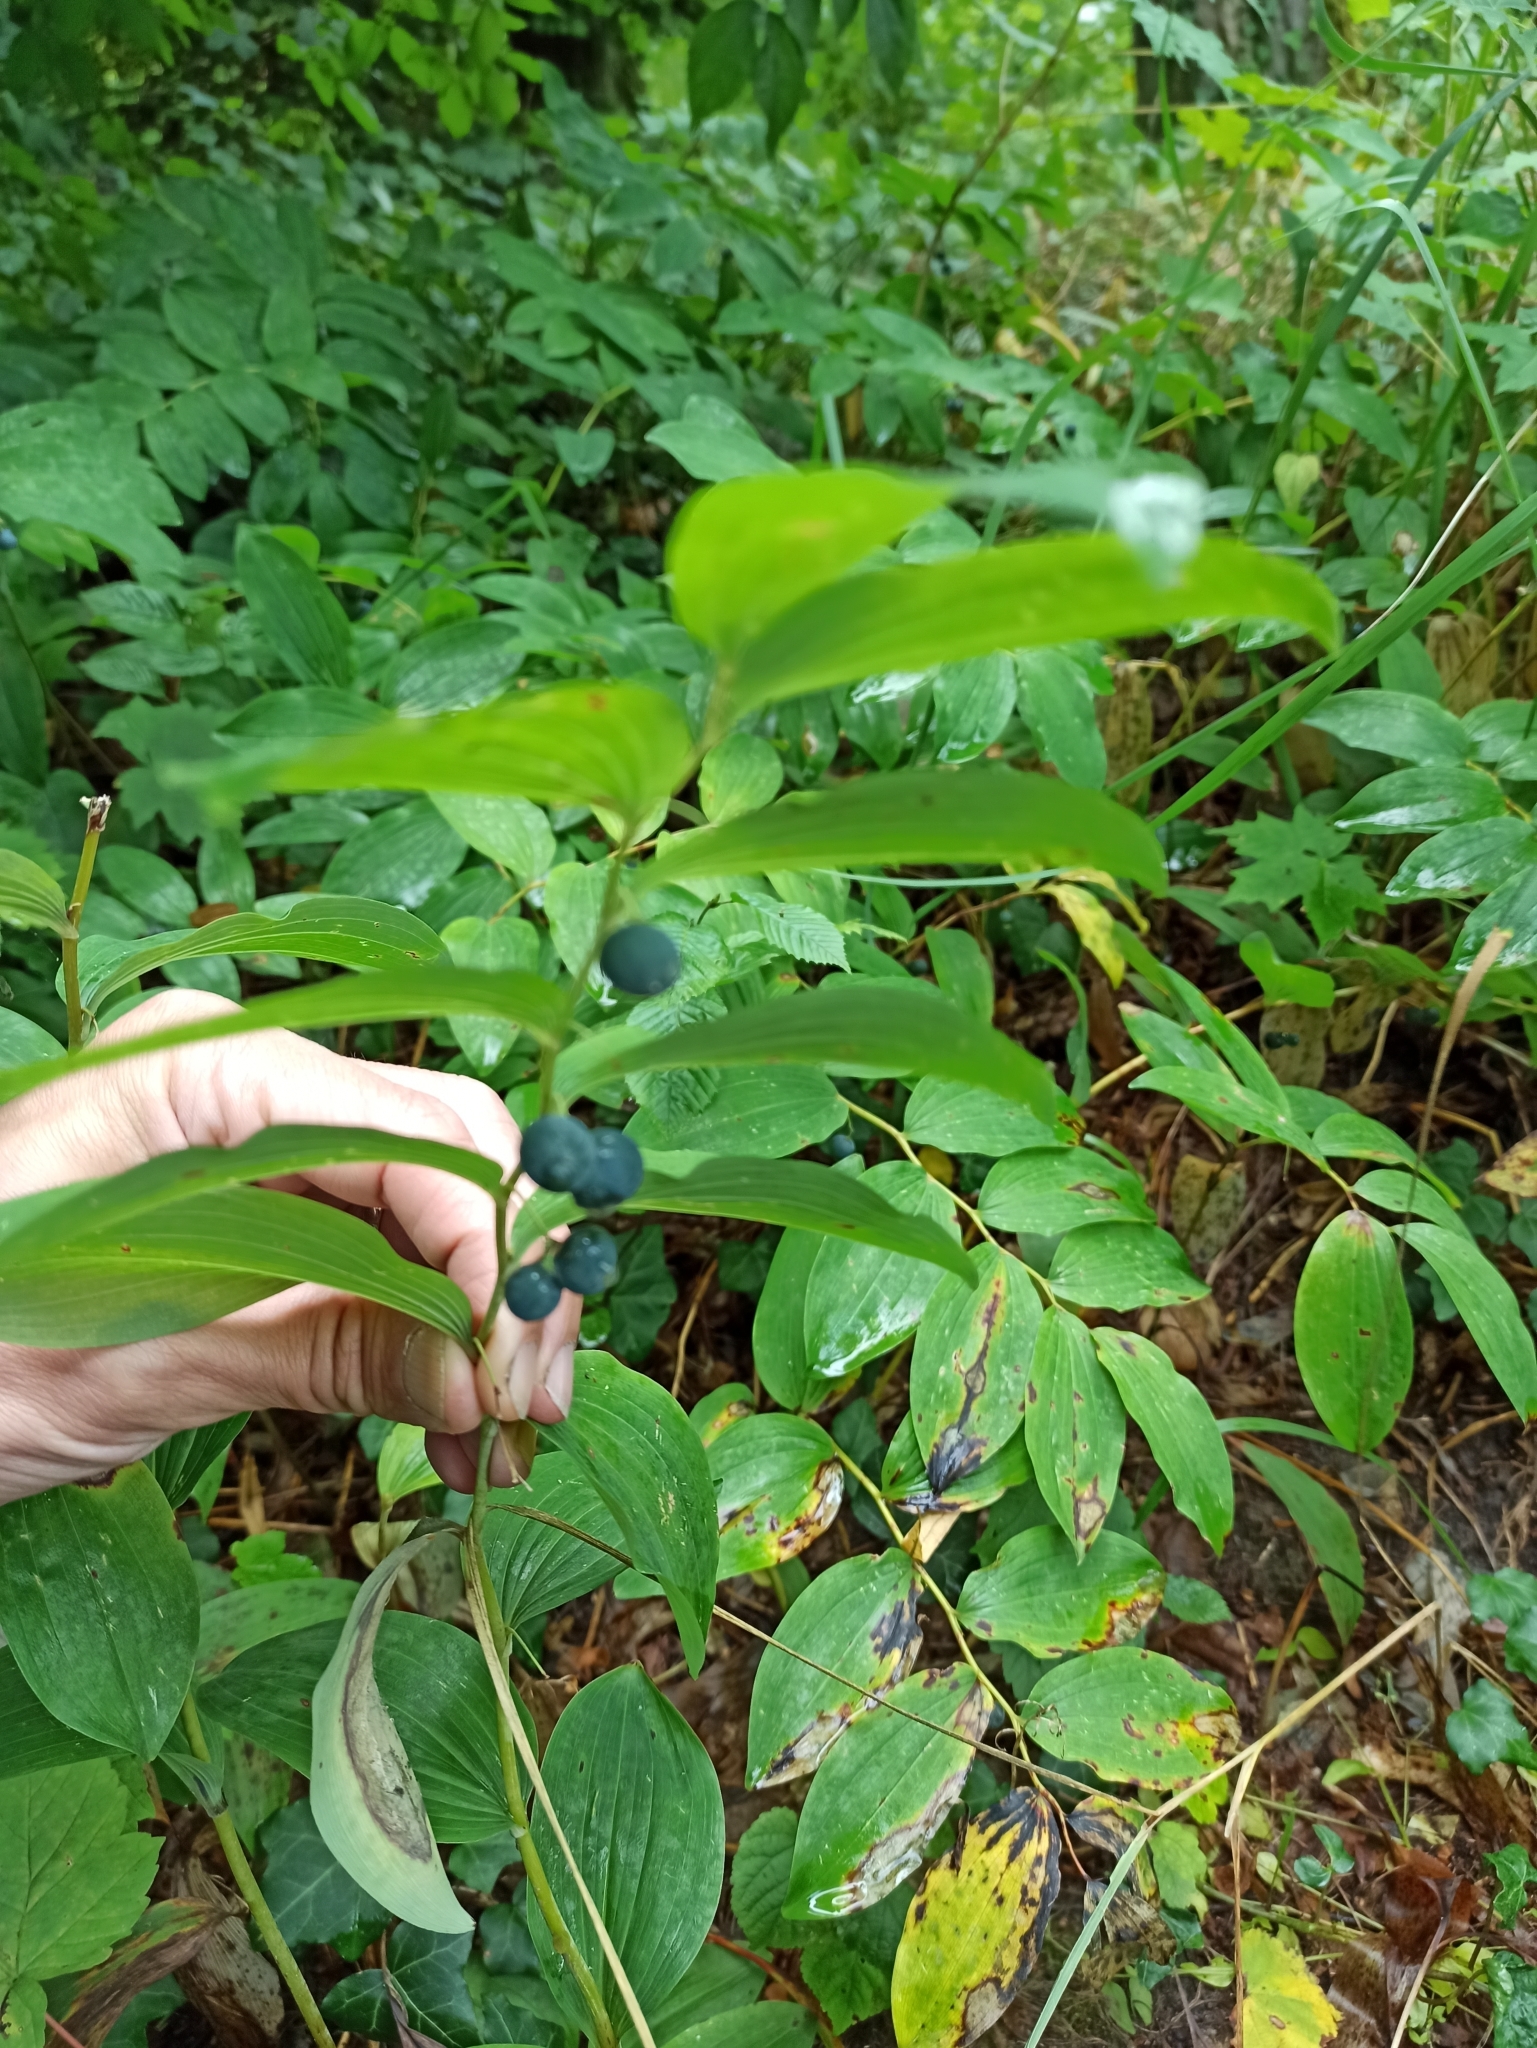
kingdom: Plantae
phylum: Tracheophyta
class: Liliopsida
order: Asparagales
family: Asparagaceae
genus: Polygonatum
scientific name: Polygonatum multiflorum
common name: Solomon's-seal
